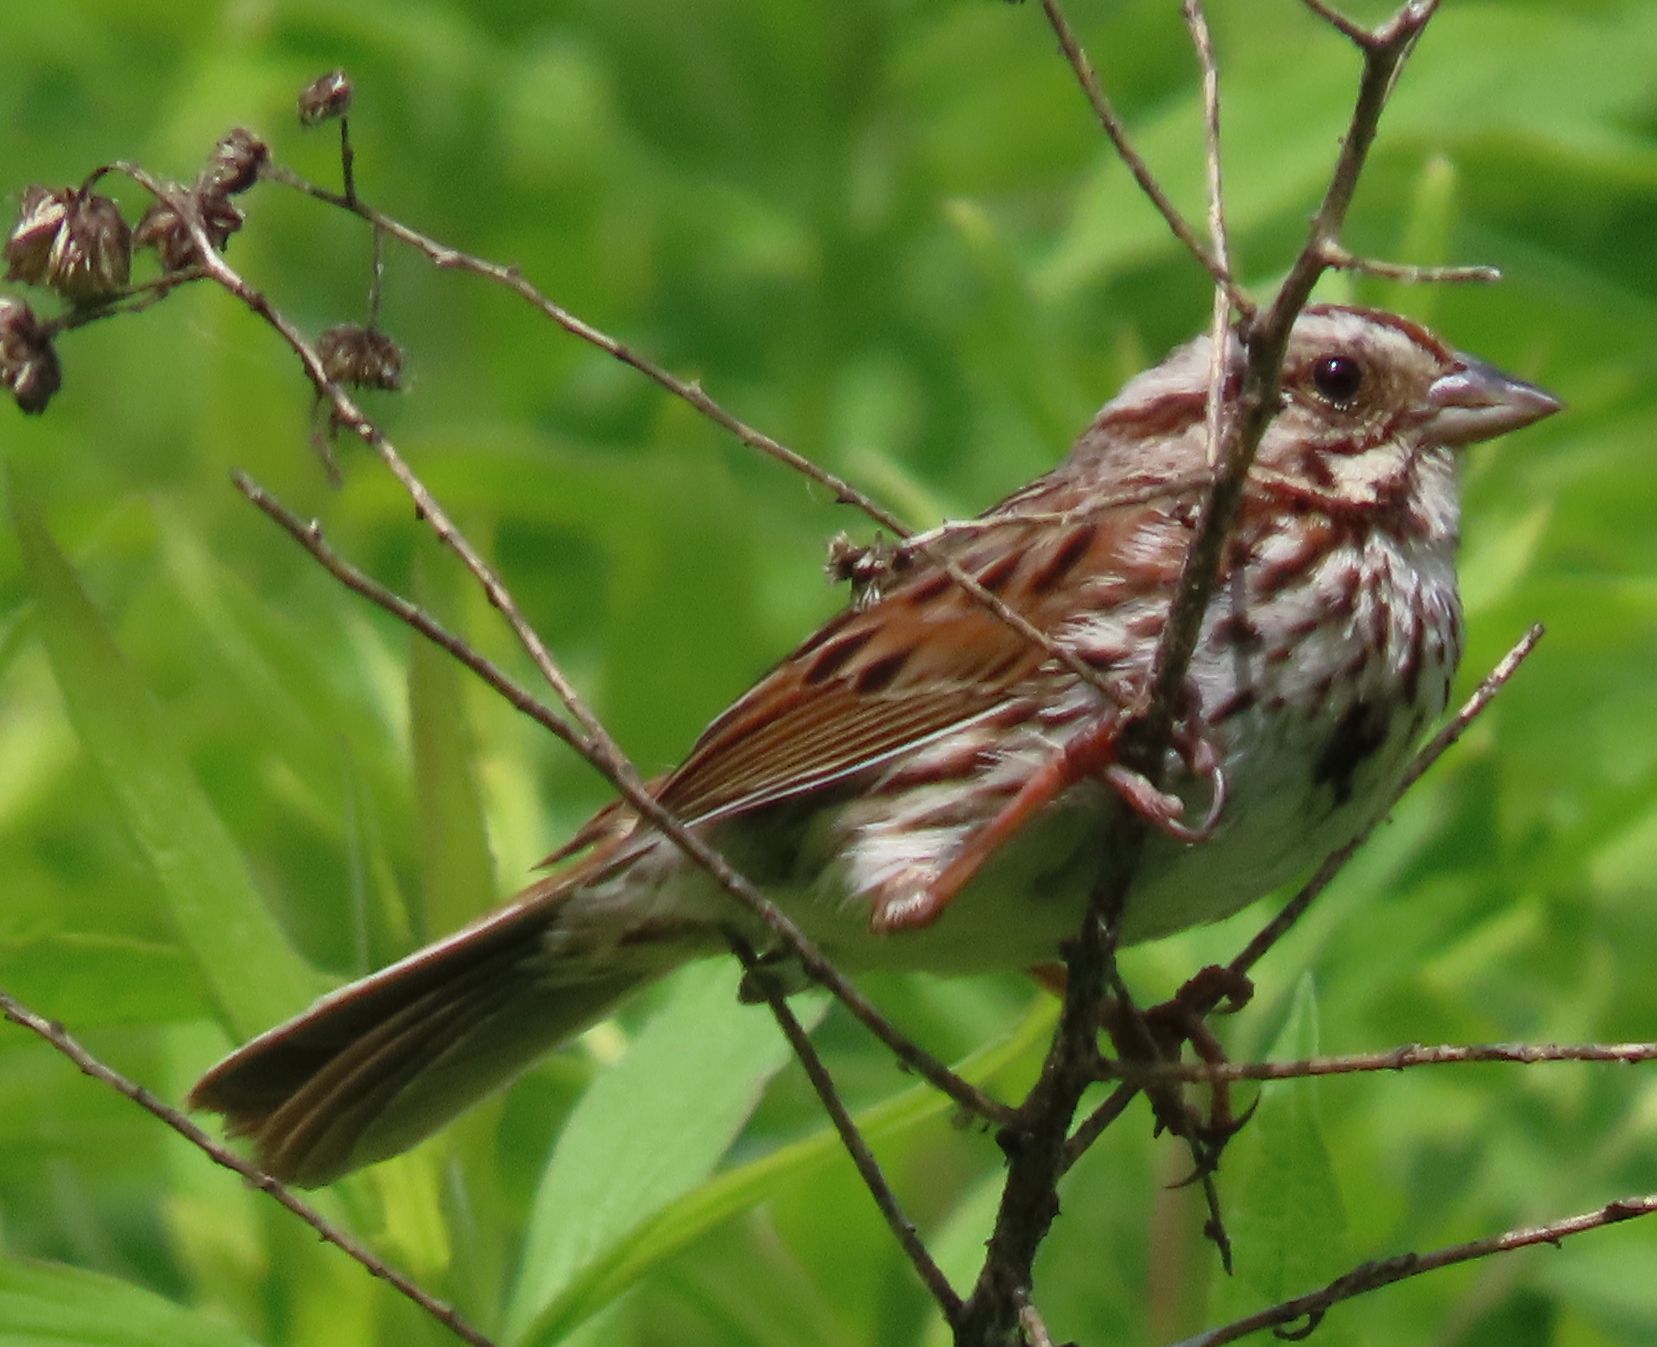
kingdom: Animalia
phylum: Chordata
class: Aves
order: Passeriformes
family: Passerellidae
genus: Melospiza
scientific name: Melospiza melodia
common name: Song sparrow
